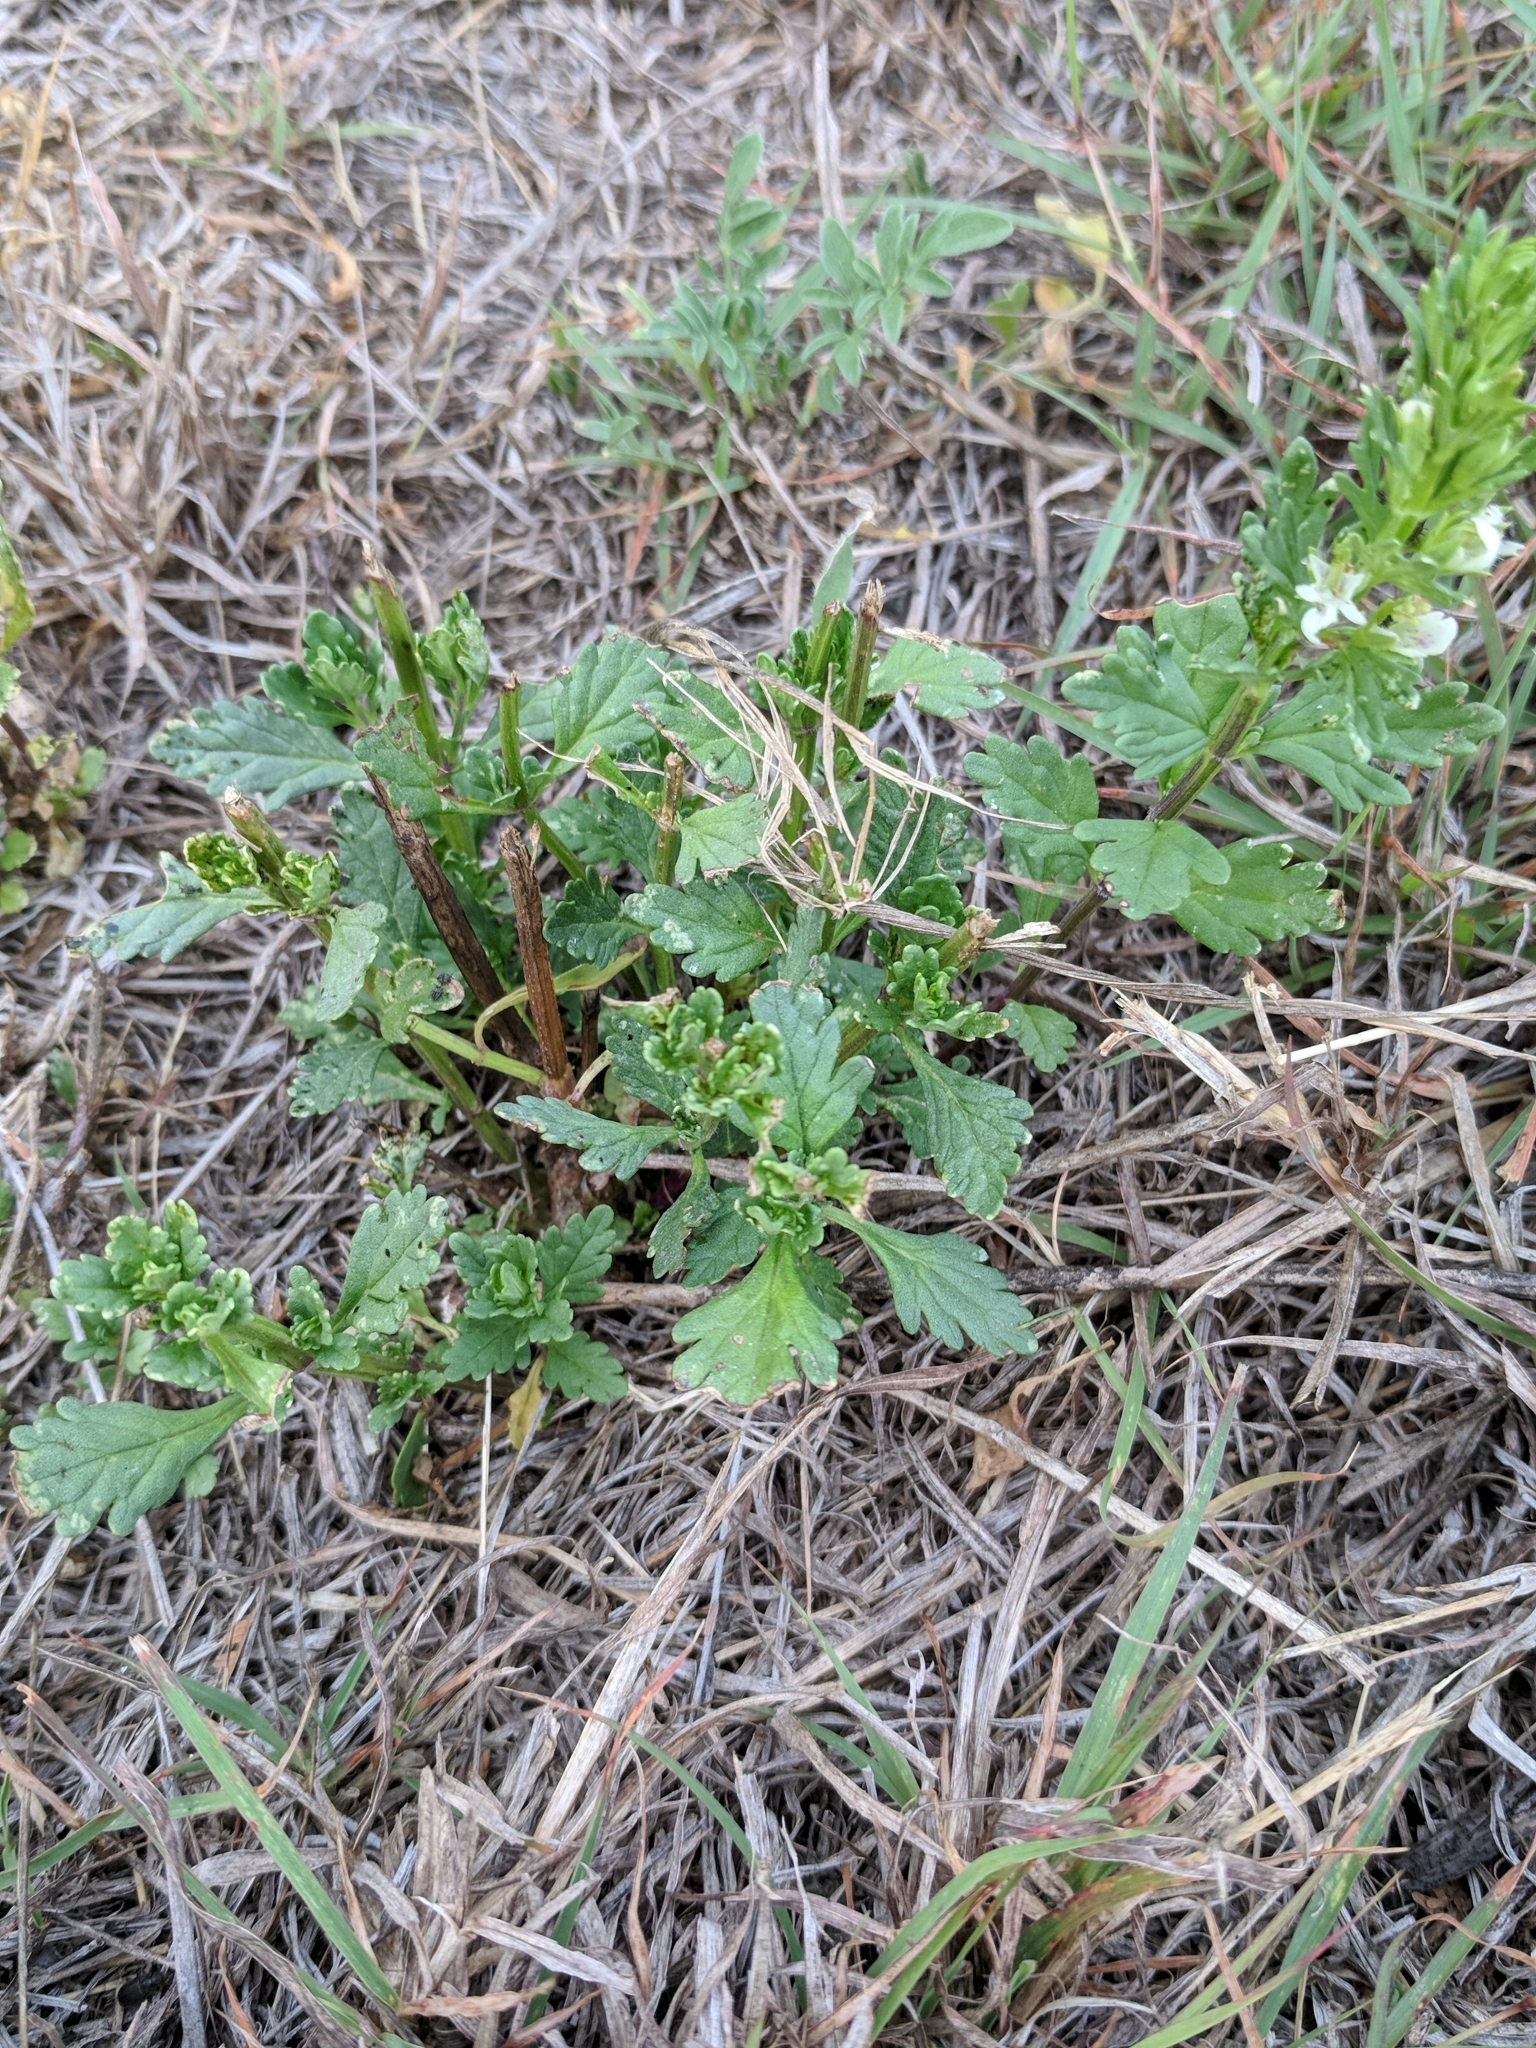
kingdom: Plantae
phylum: Tracheophyta
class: Magnoliopsida
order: Lamiales
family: Lamiaceae
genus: Teucrium
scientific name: Teucrium cubense
